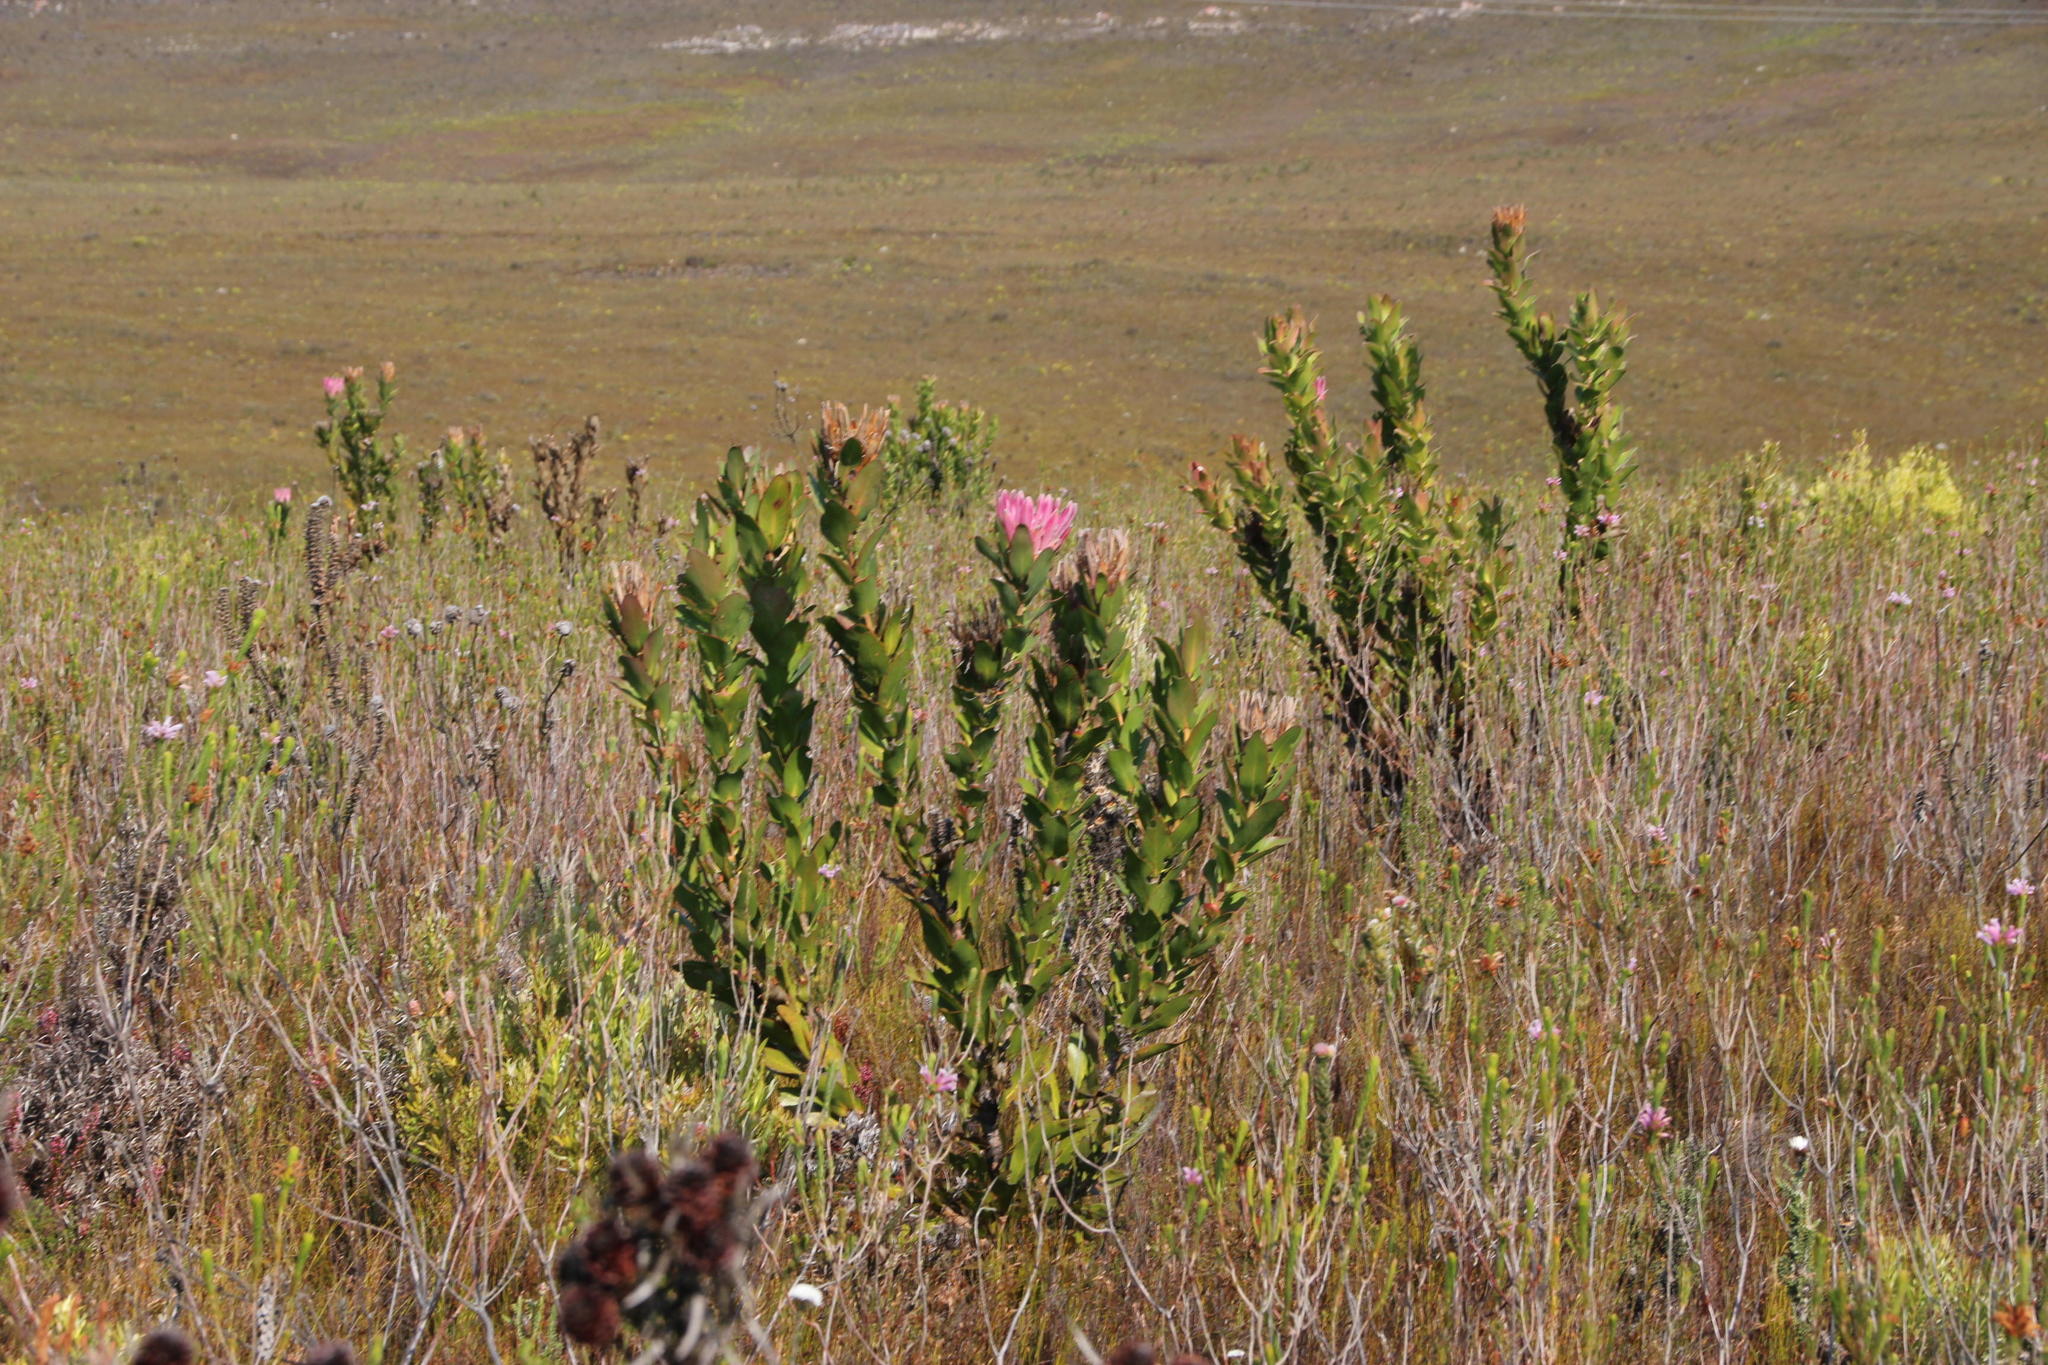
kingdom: Plantae
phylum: Tracheophyta
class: Magnoliopsida
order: Proteales
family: Proteaceae
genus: Protea
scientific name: Protea compacta
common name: Bot river protea
